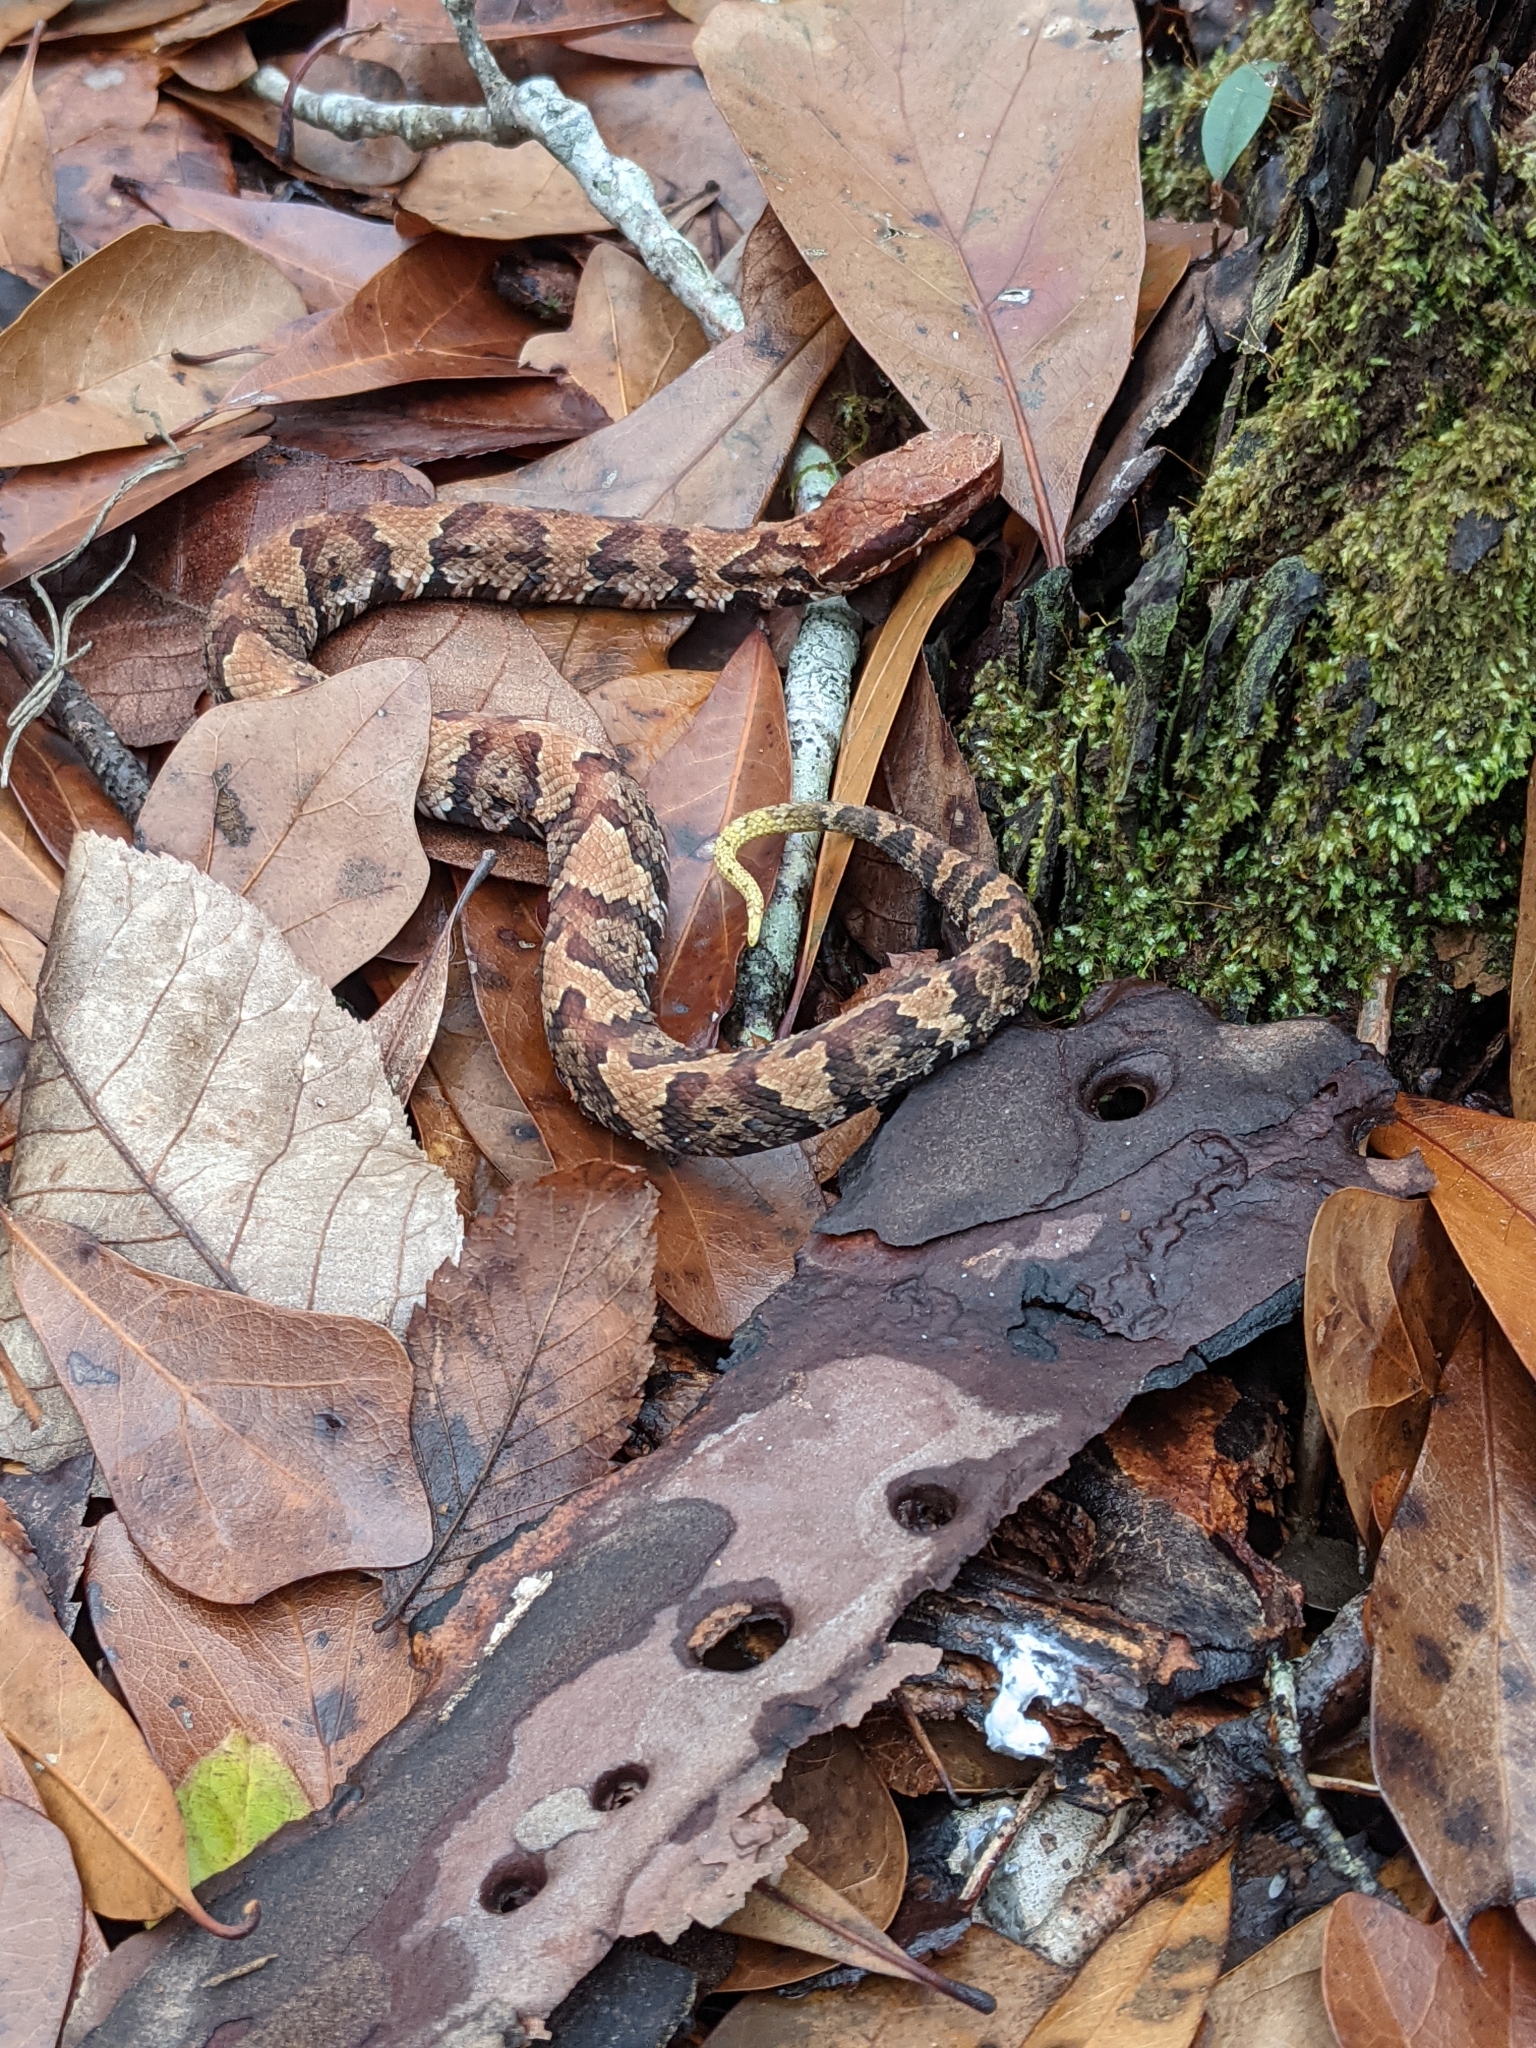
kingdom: Animalia
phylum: Chordata
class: Squamata
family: Viperidae
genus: Agkistrodon
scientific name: Agkistrodon piscivorus
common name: Cottonmouth
